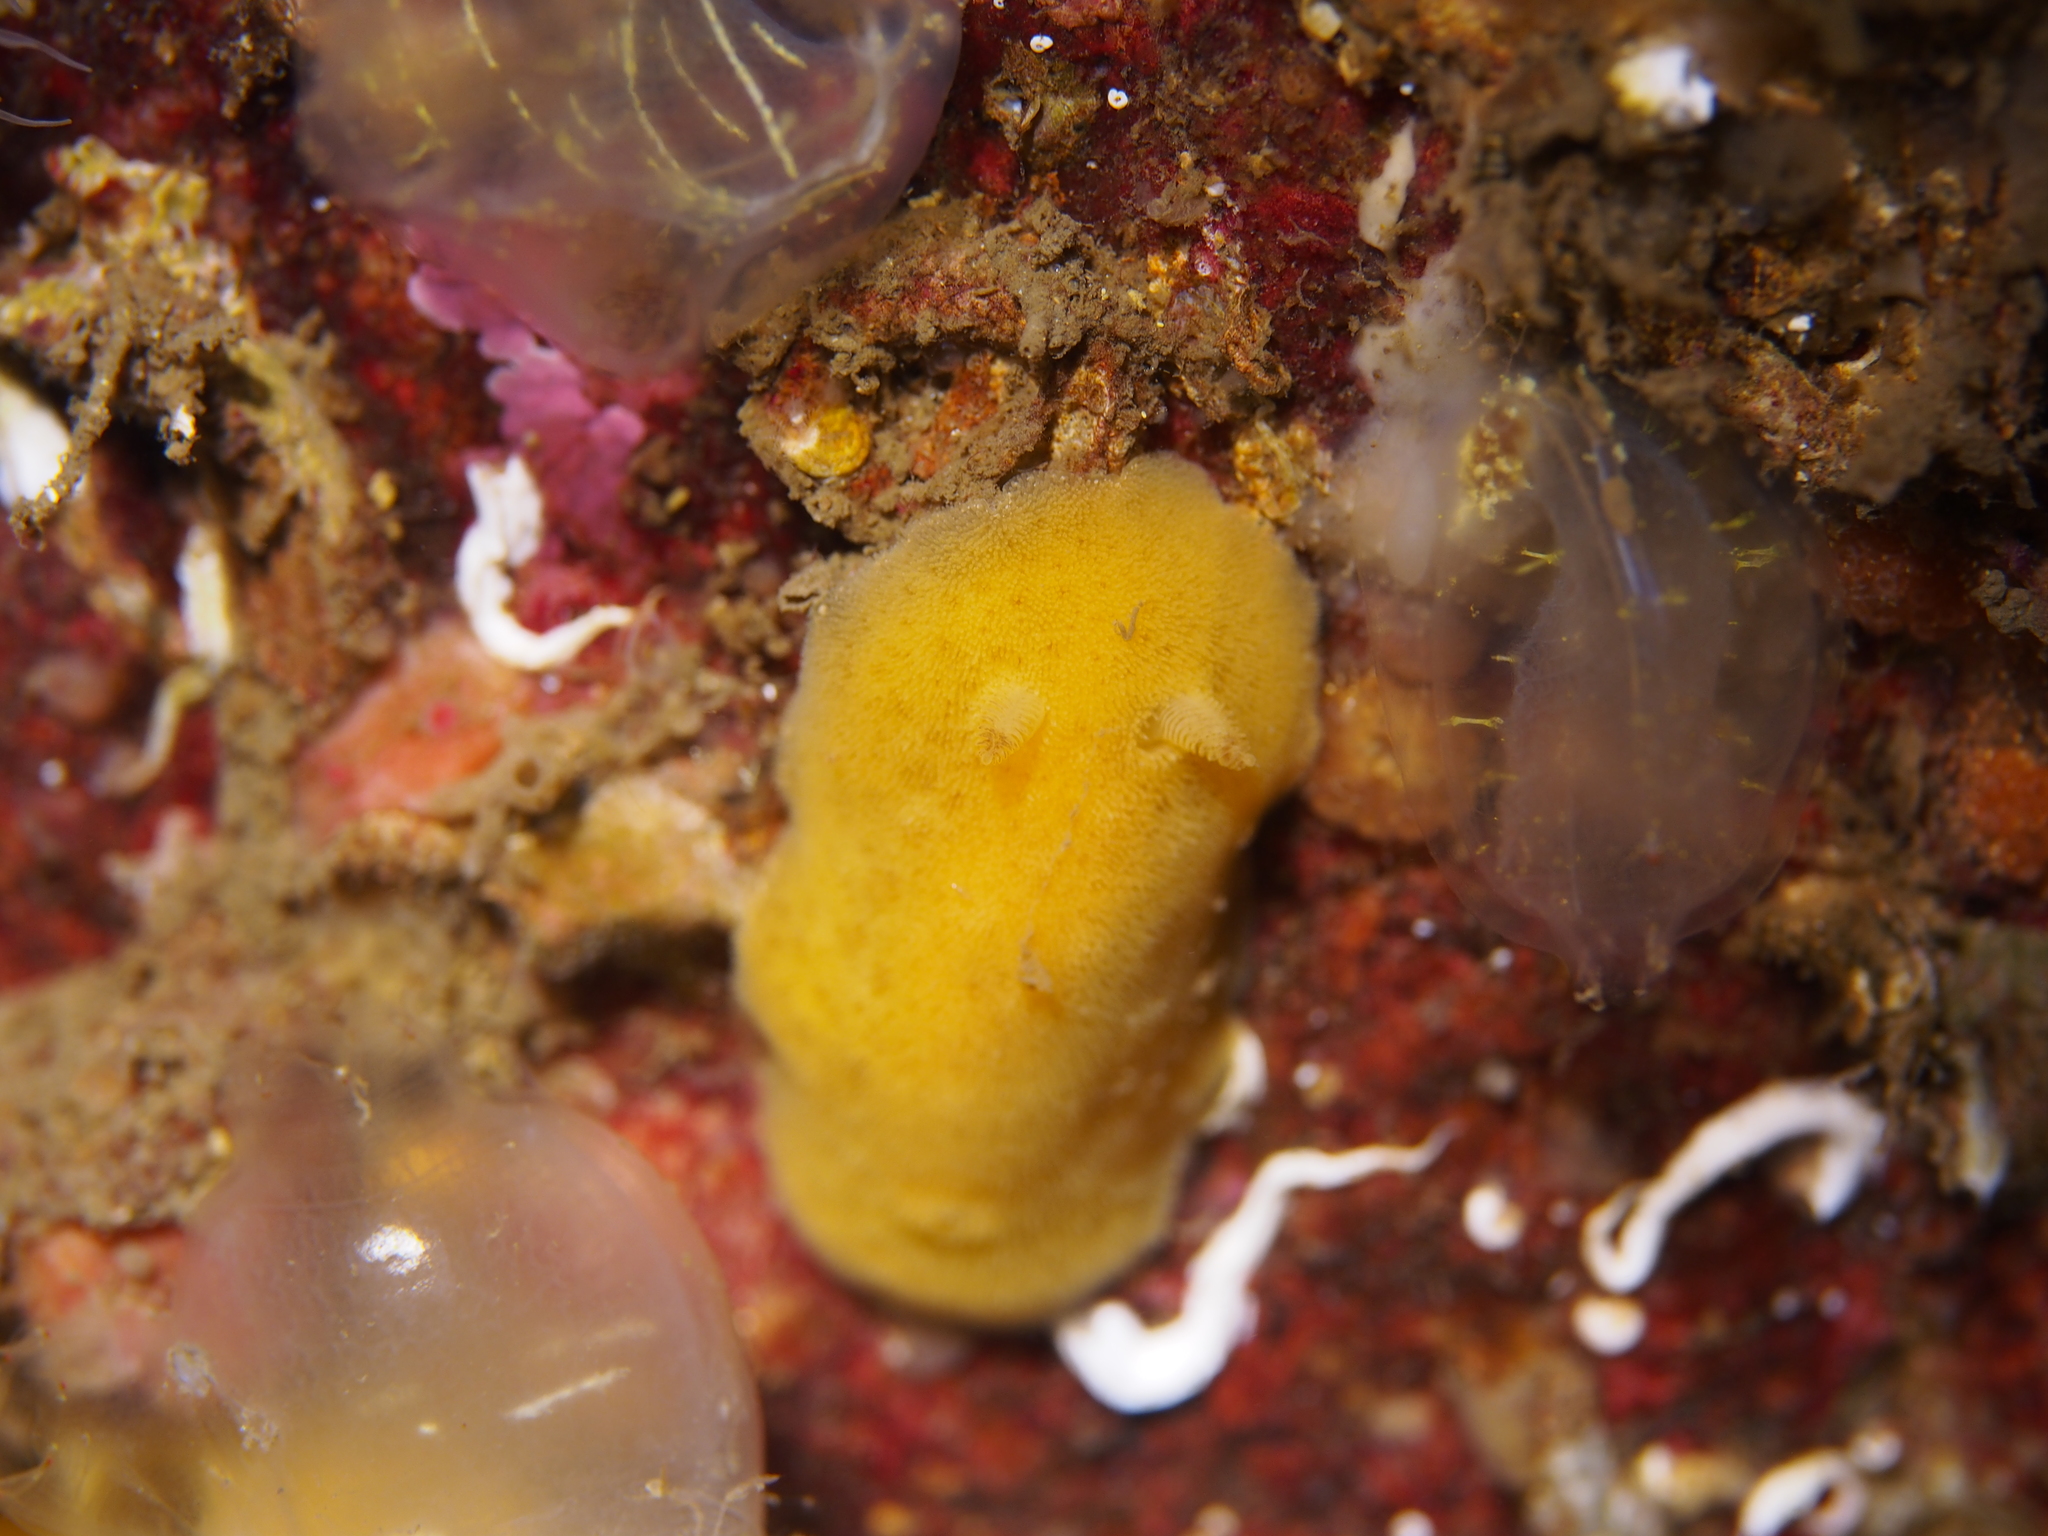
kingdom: Animalia
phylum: Mollusca
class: Gastropoda
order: Nudibranchia
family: Discodorididae
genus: Jorunna
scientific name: Jorunna tomentosa
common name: Grey sea slug
